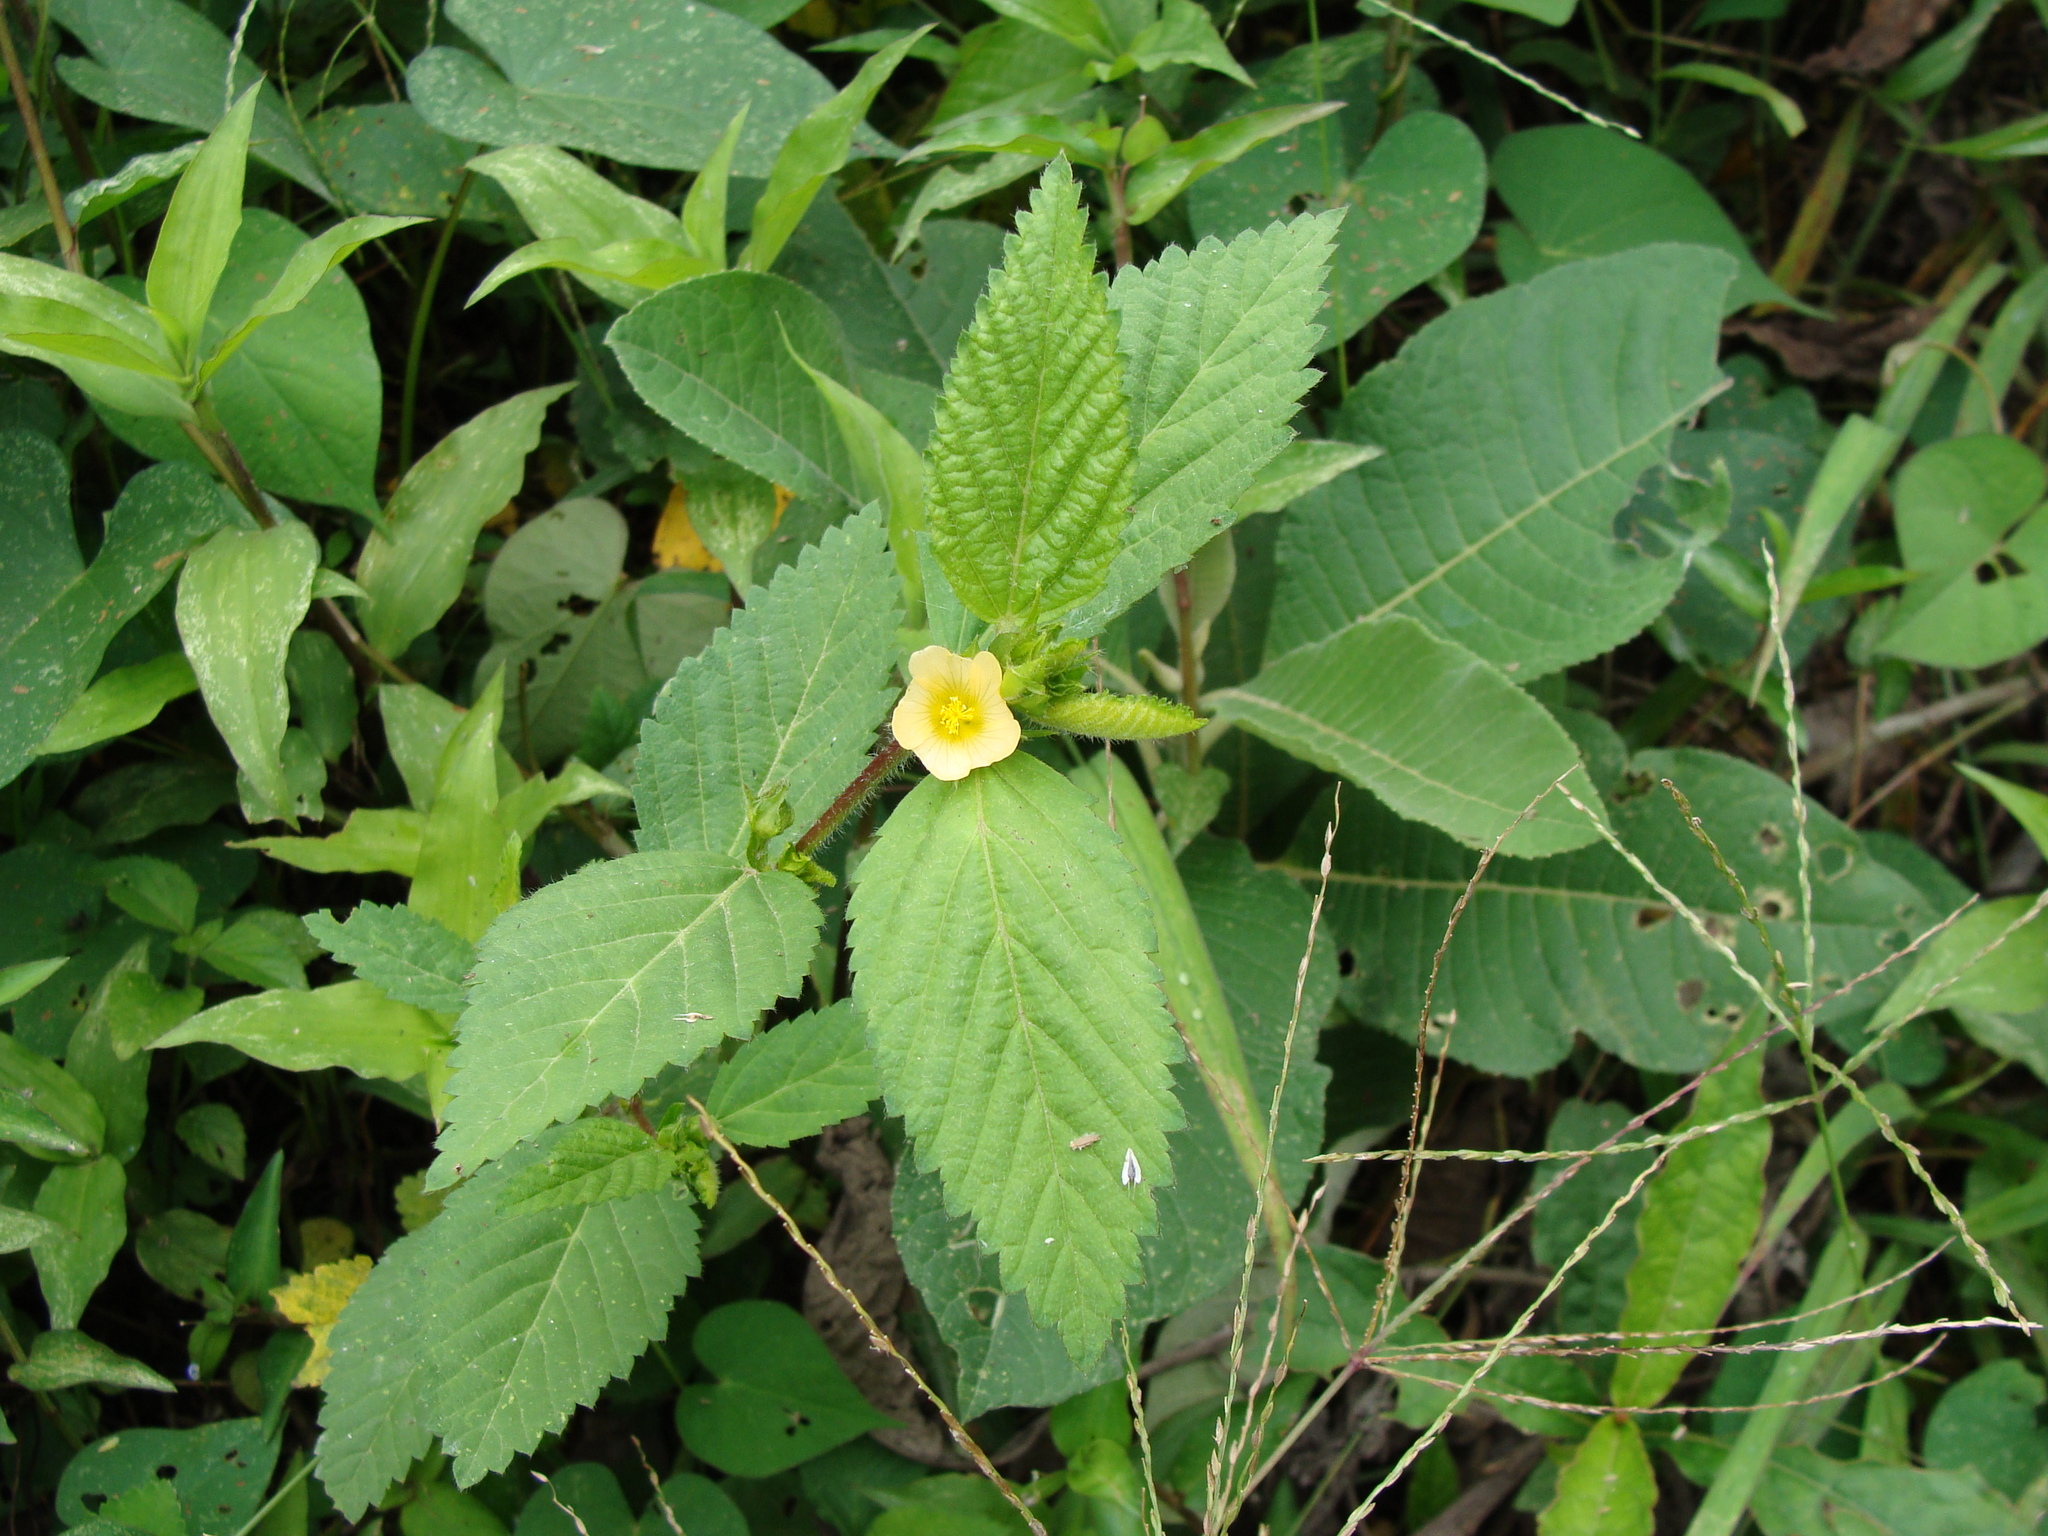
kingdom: Plantae
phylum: Tracheophyta
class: Magnoliopsida
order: Malvales
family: Malvaceae
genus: Sida
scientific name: Sida acuta
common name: Common wireweed
